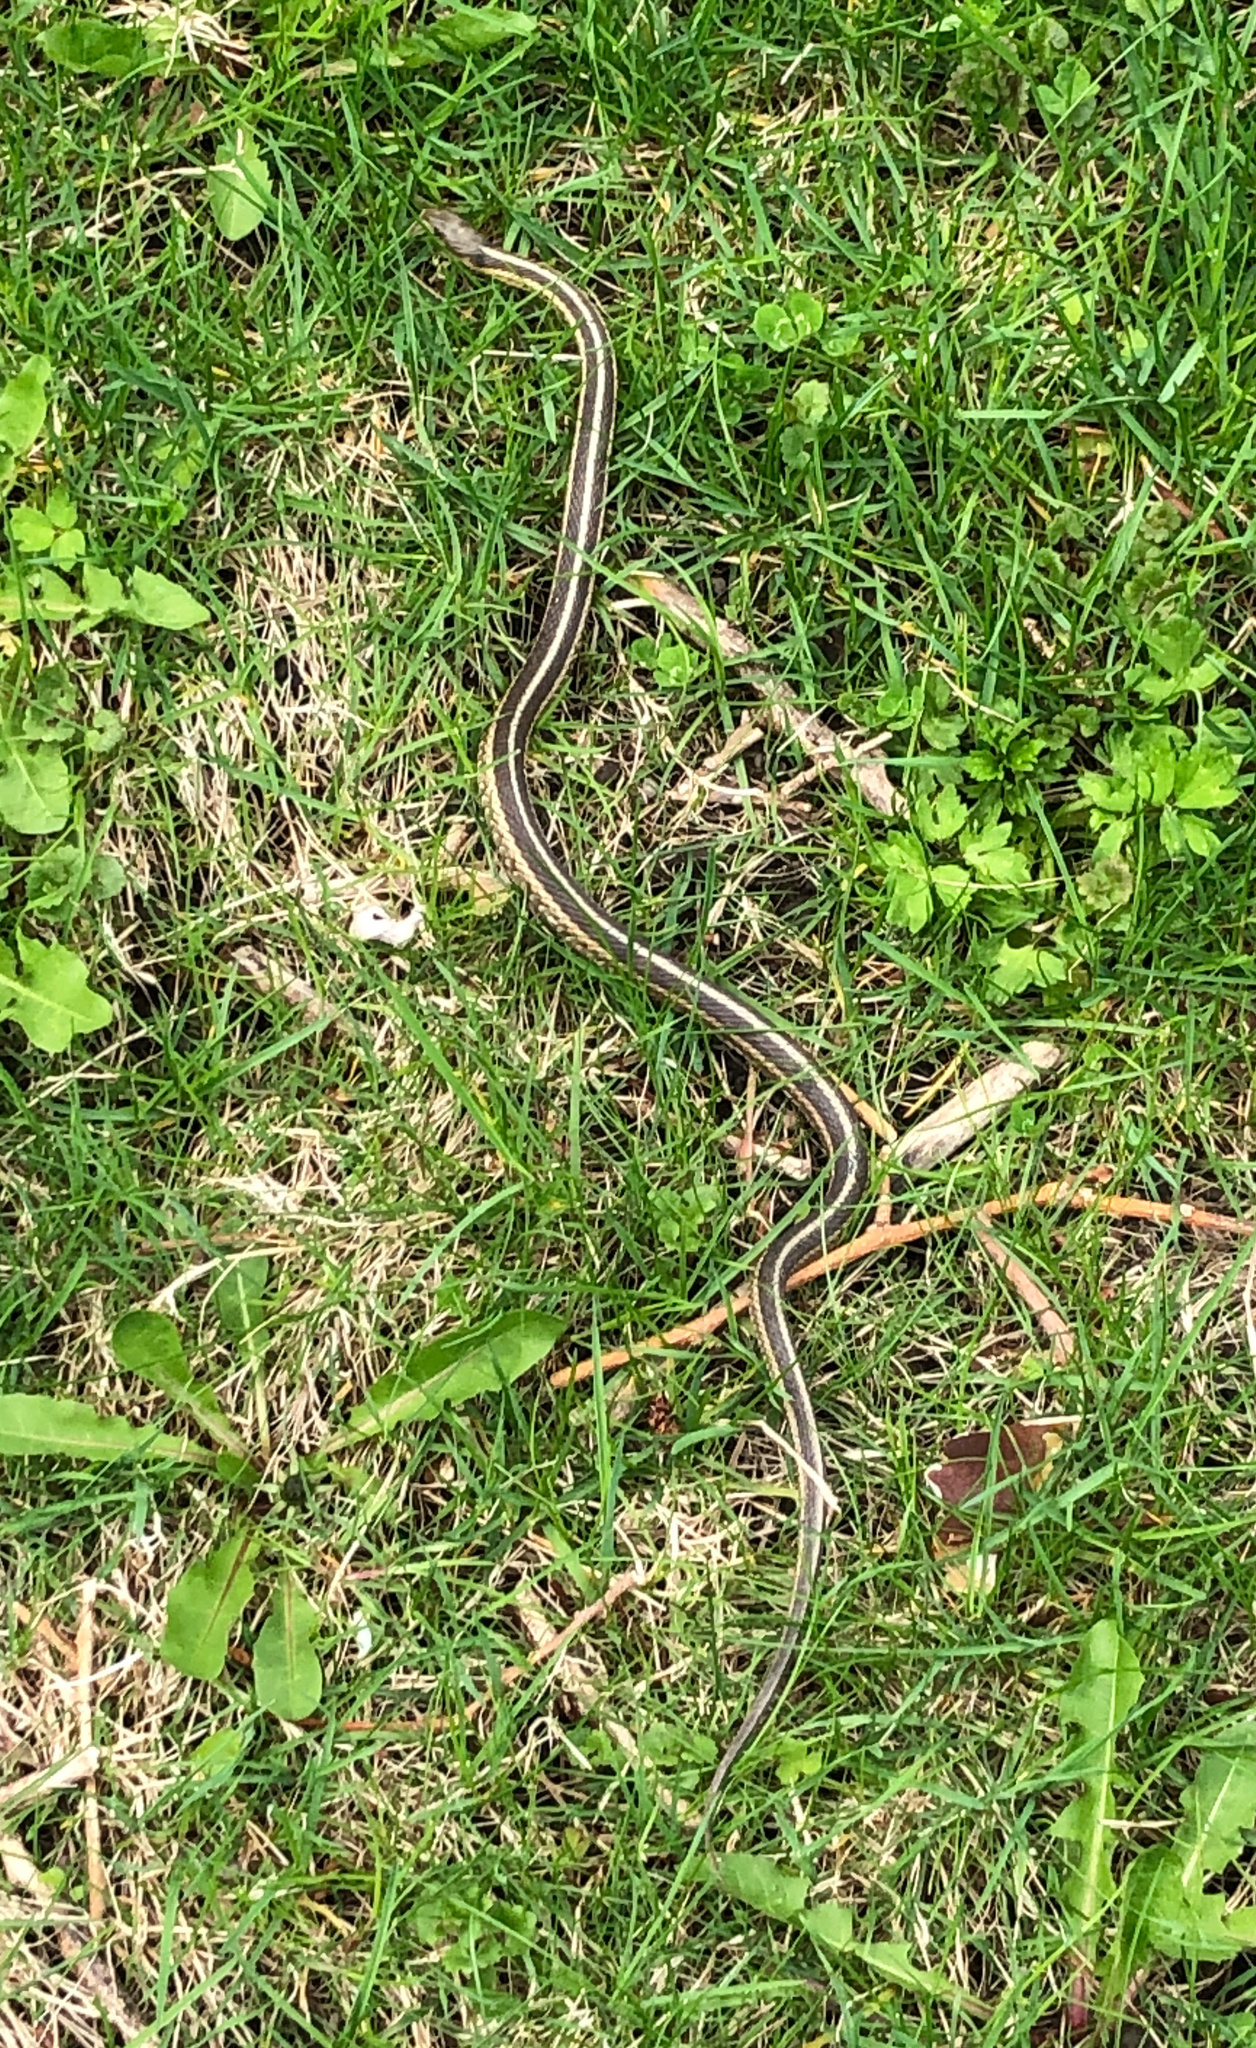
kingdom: Animalia
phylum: Chordata
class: Squamata
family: Colubridae
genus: Thamnophis
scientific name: Thamnophis sirtalis
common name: Common garter snake
